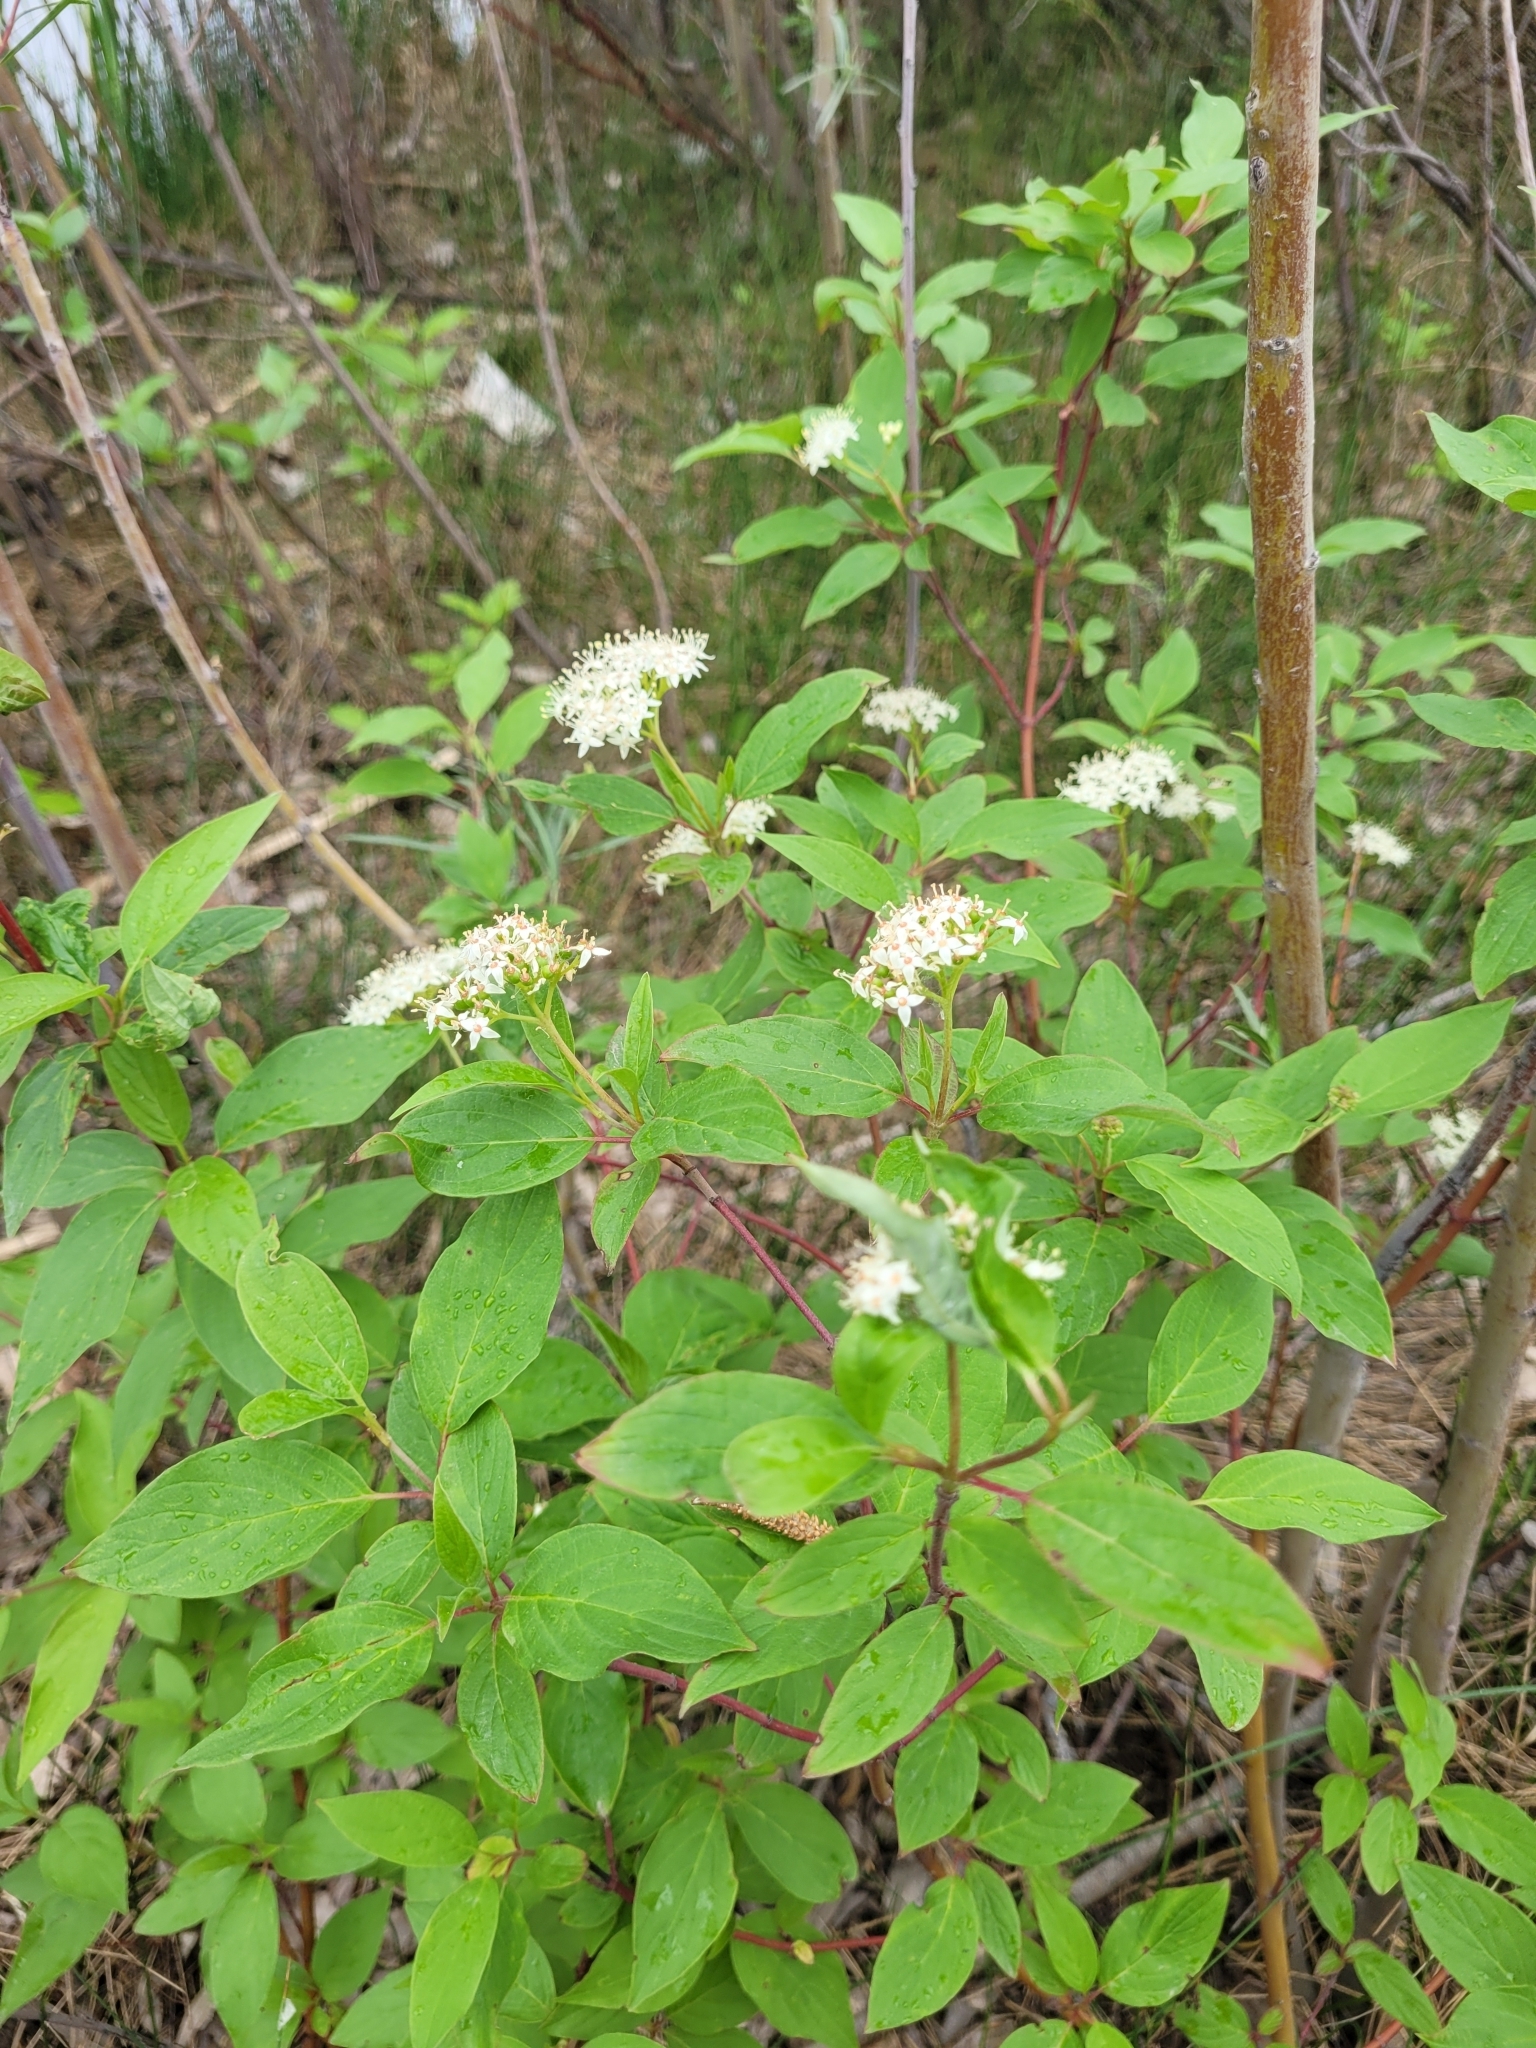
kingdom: Plantae
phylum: Tracheophyta
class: Magnoliopsida
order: Cornales
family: Cornaceae
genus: Cornus
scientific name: Cornus sericea
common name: Red-osier dogwood
